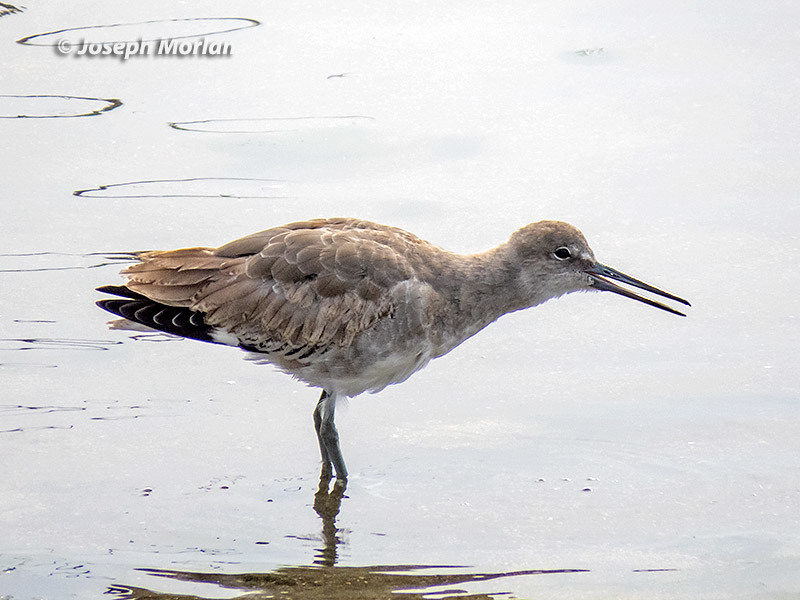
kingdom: Animalia
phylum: Chordata
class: Aves
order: Charadriiformes
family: Scolopacidae
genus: Tringa
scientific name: Tringa semipalmata
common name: Willet
